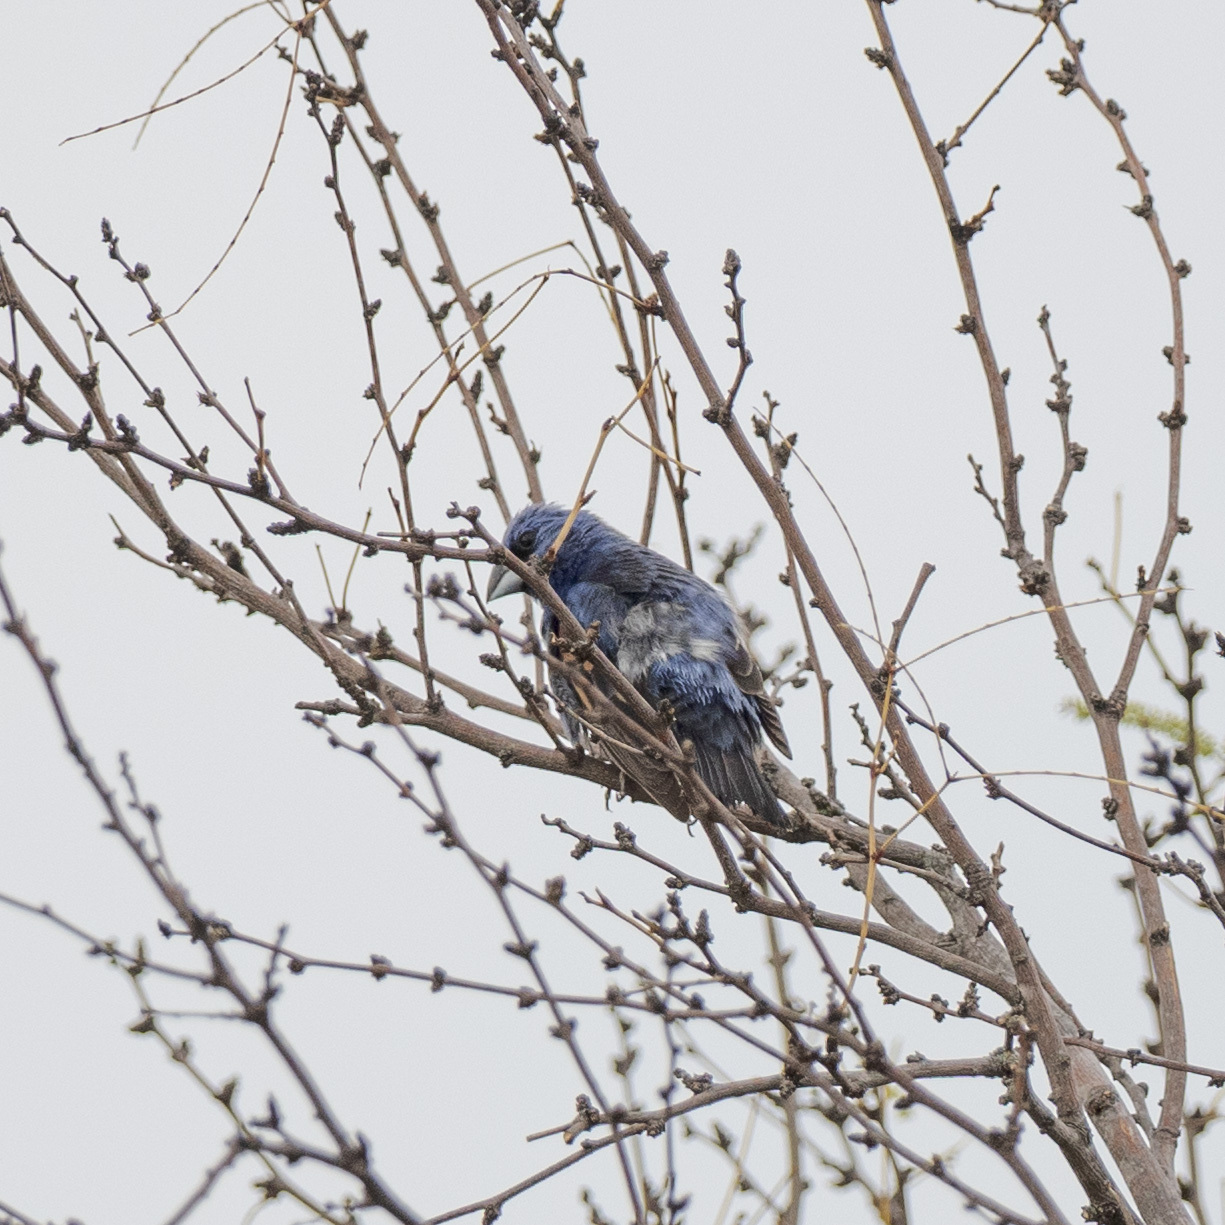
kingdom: Animalia
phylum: Chordata
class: Aves
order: Passeriformes
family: Cardinalidae
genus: Passerina
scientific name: Passerina caerulea
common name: Blue grosbeak
